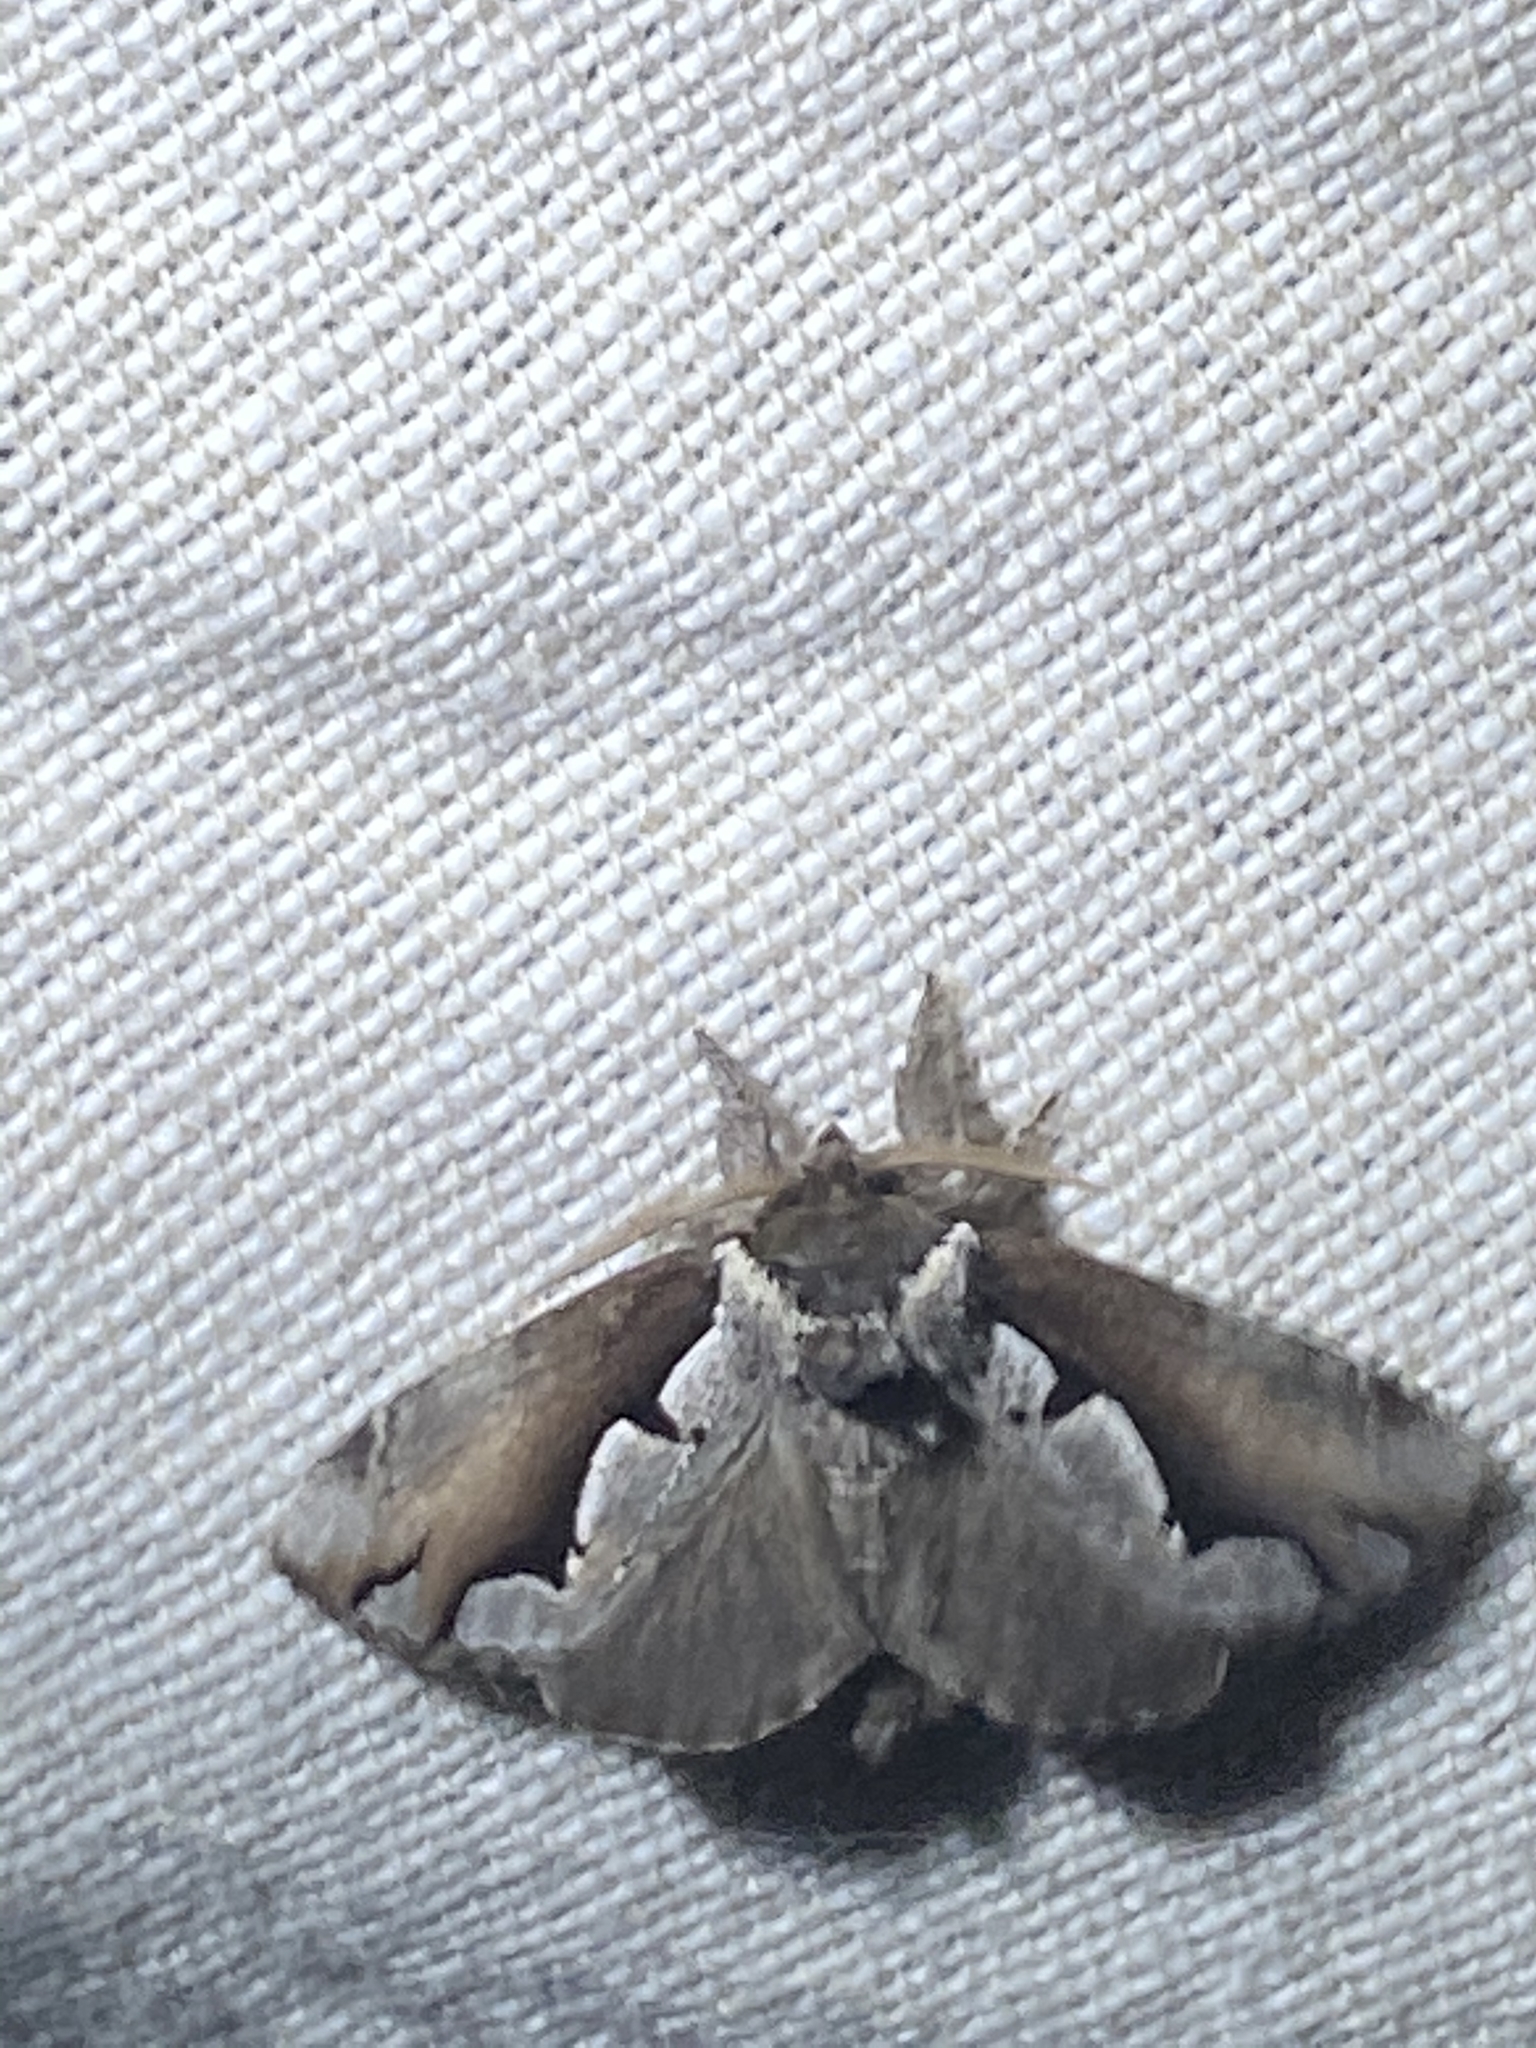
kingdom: Animalia
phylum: Arthropoda
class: Insecta
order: Lepidoptera
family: Notodontidae
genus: Nerice
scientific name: Nerice bidentata
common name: Double-toothed prominent
